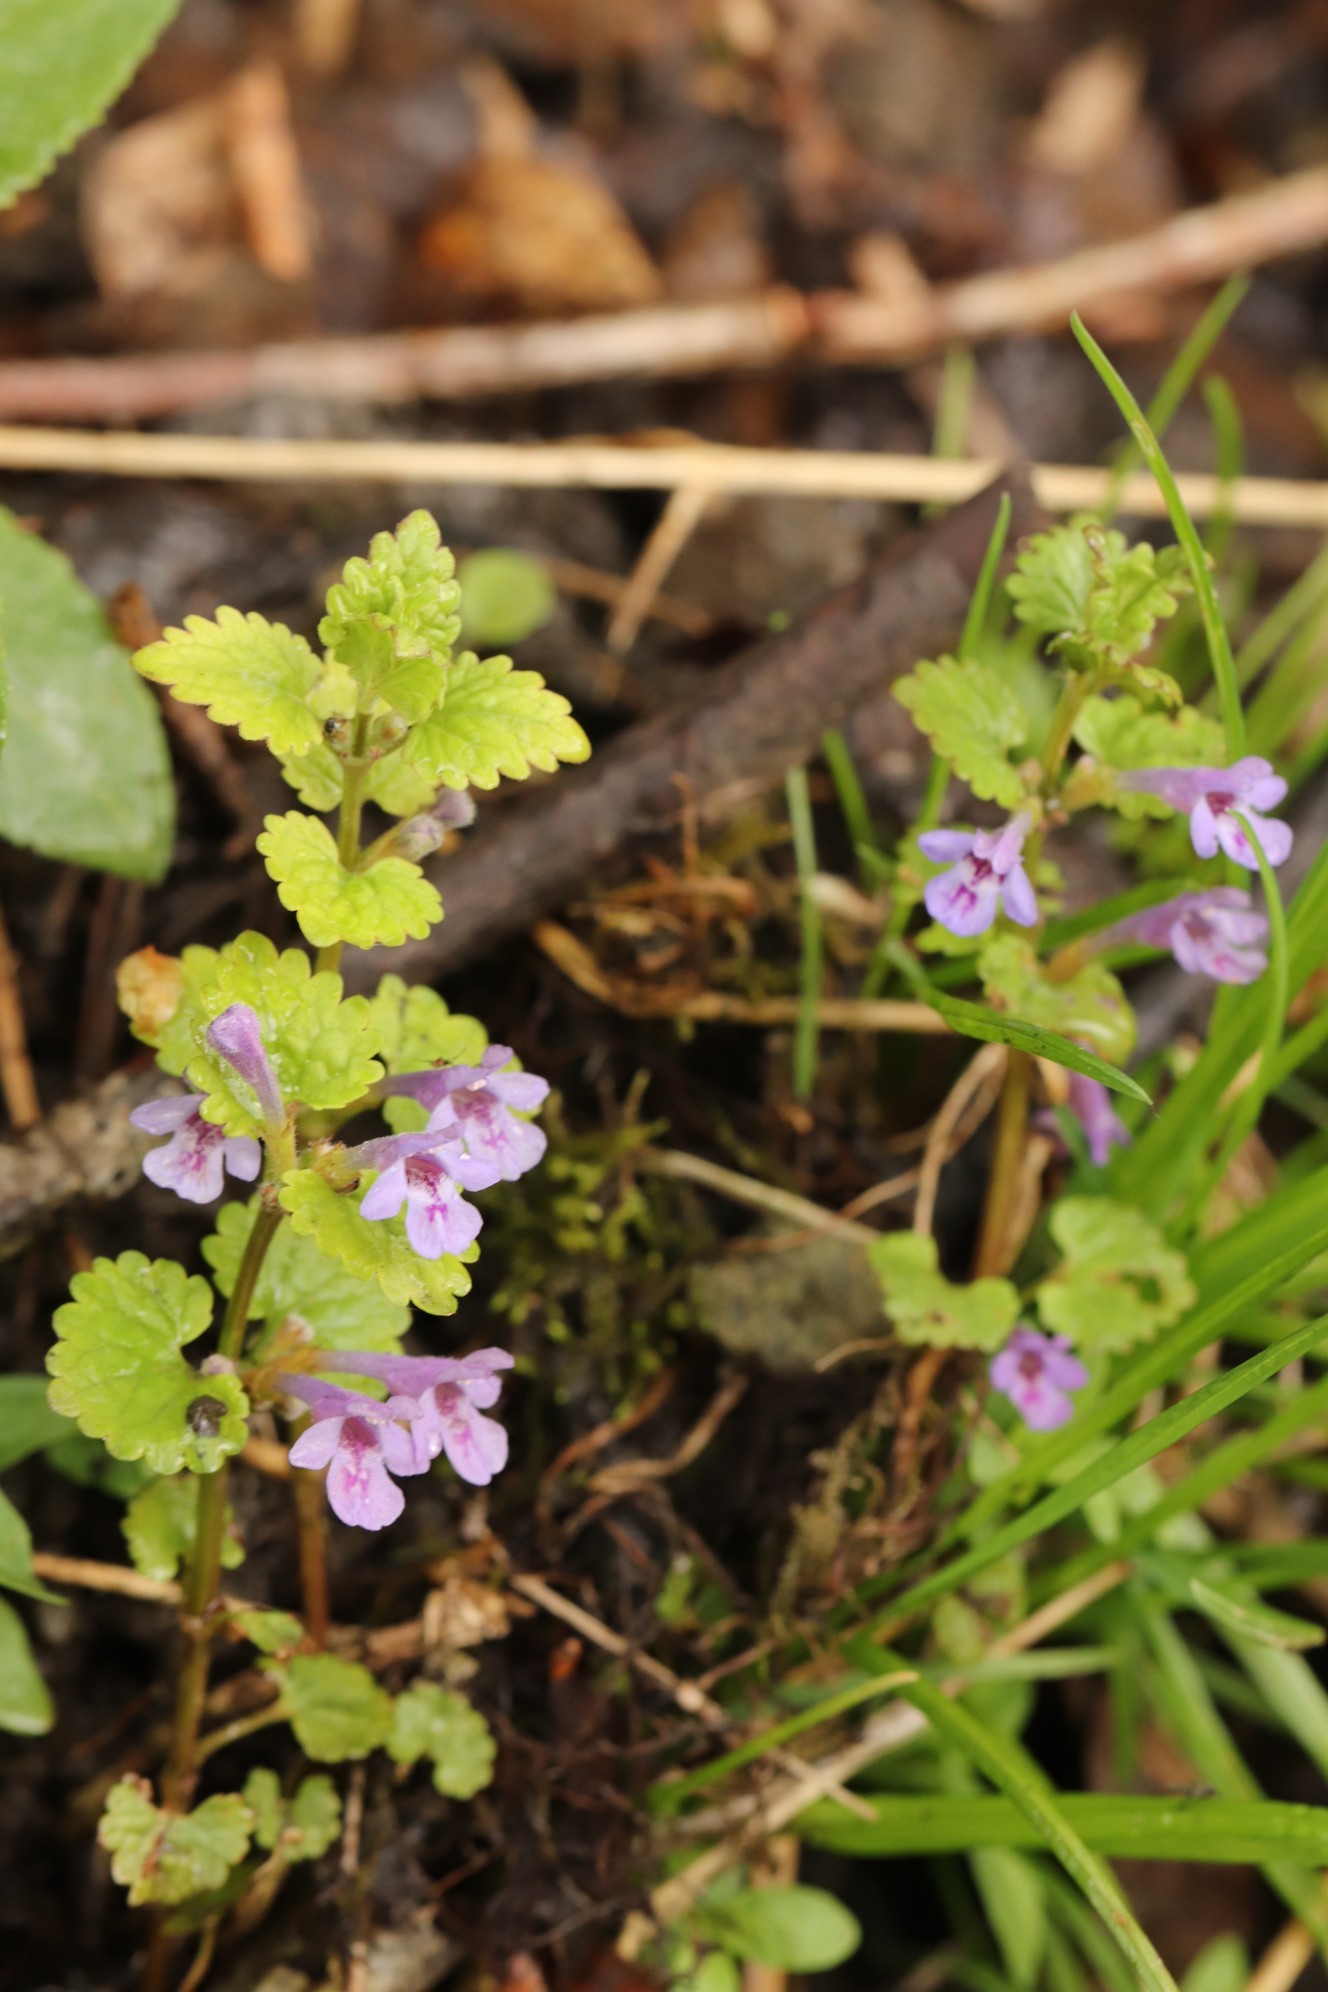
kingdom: Plantae
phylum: Tracheophyta
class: Magnoliopsida
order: Lamiales
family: Lamiaceae
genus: Glechoma
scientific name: Glechoma hederacea
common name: Ground ivy
